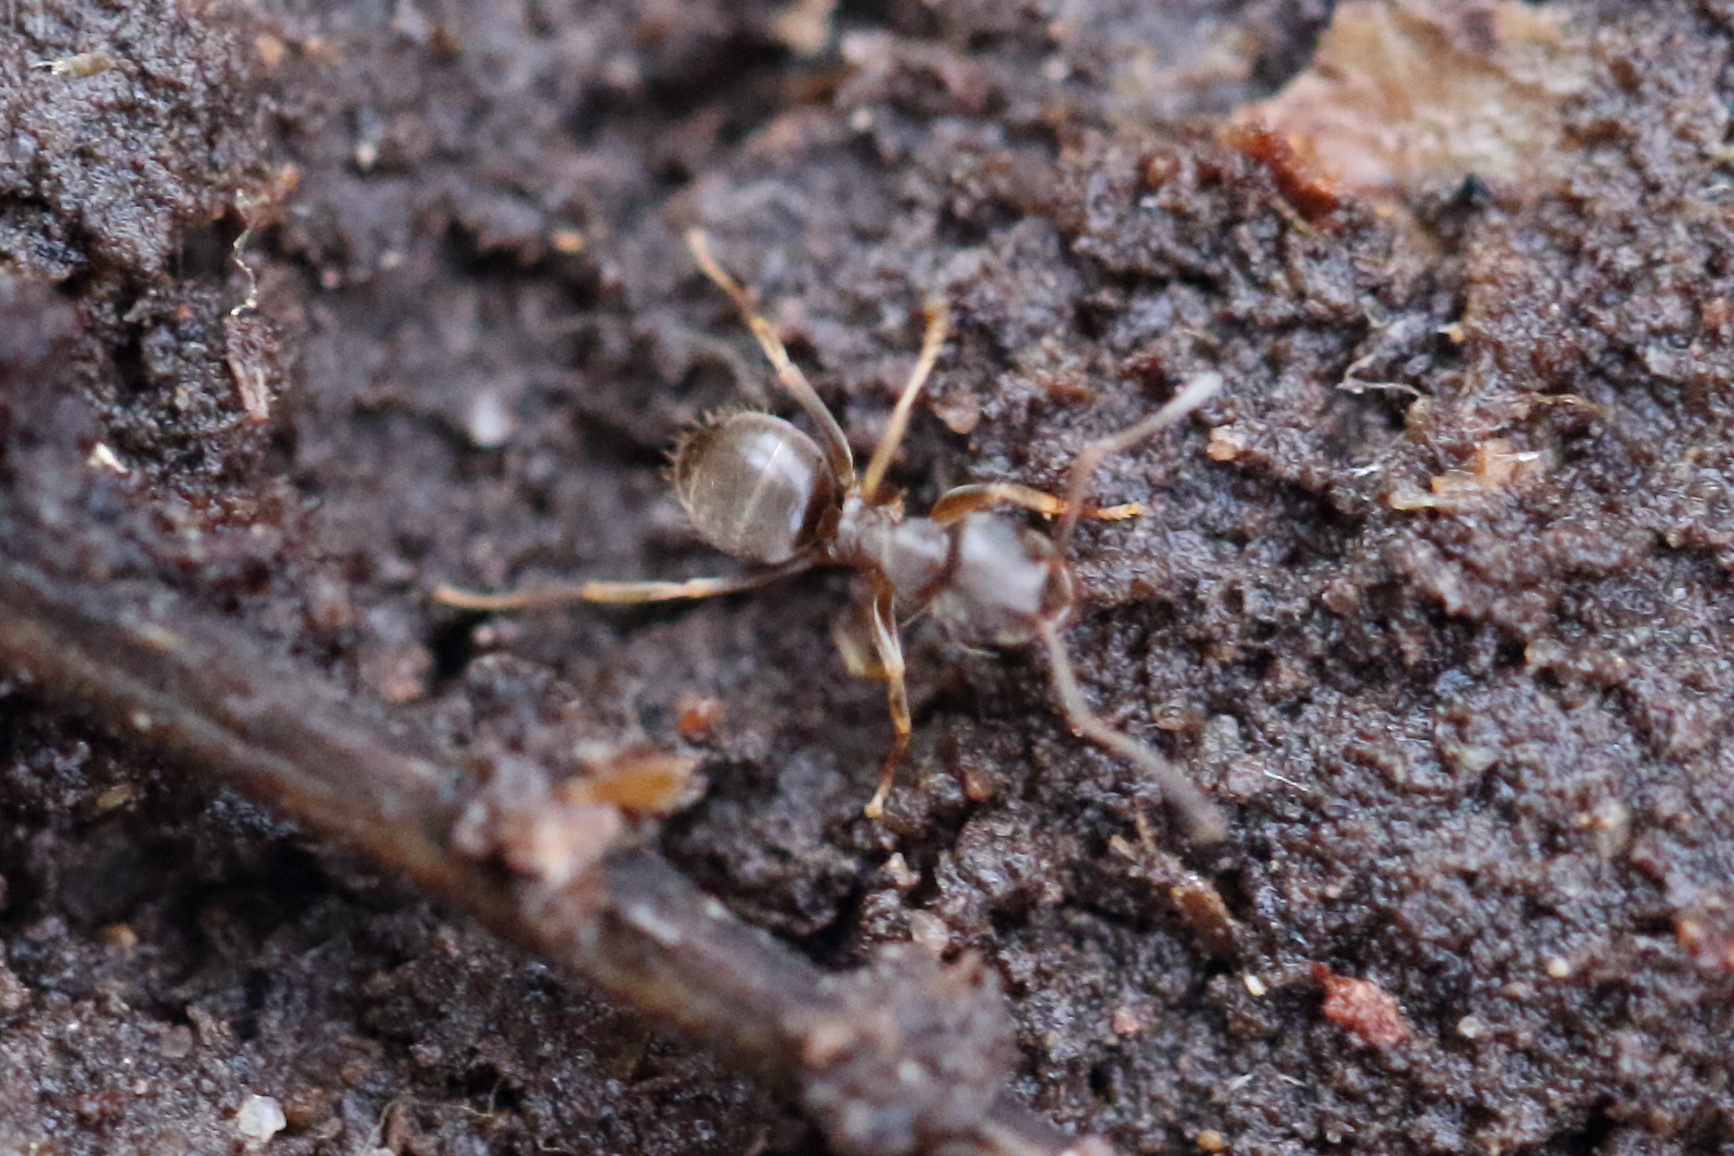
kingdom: Animalia
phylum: Arthropoda
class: Insecta
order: Hymenoptera
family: Formicidae
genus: Lasius
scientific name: Lasius americanus
